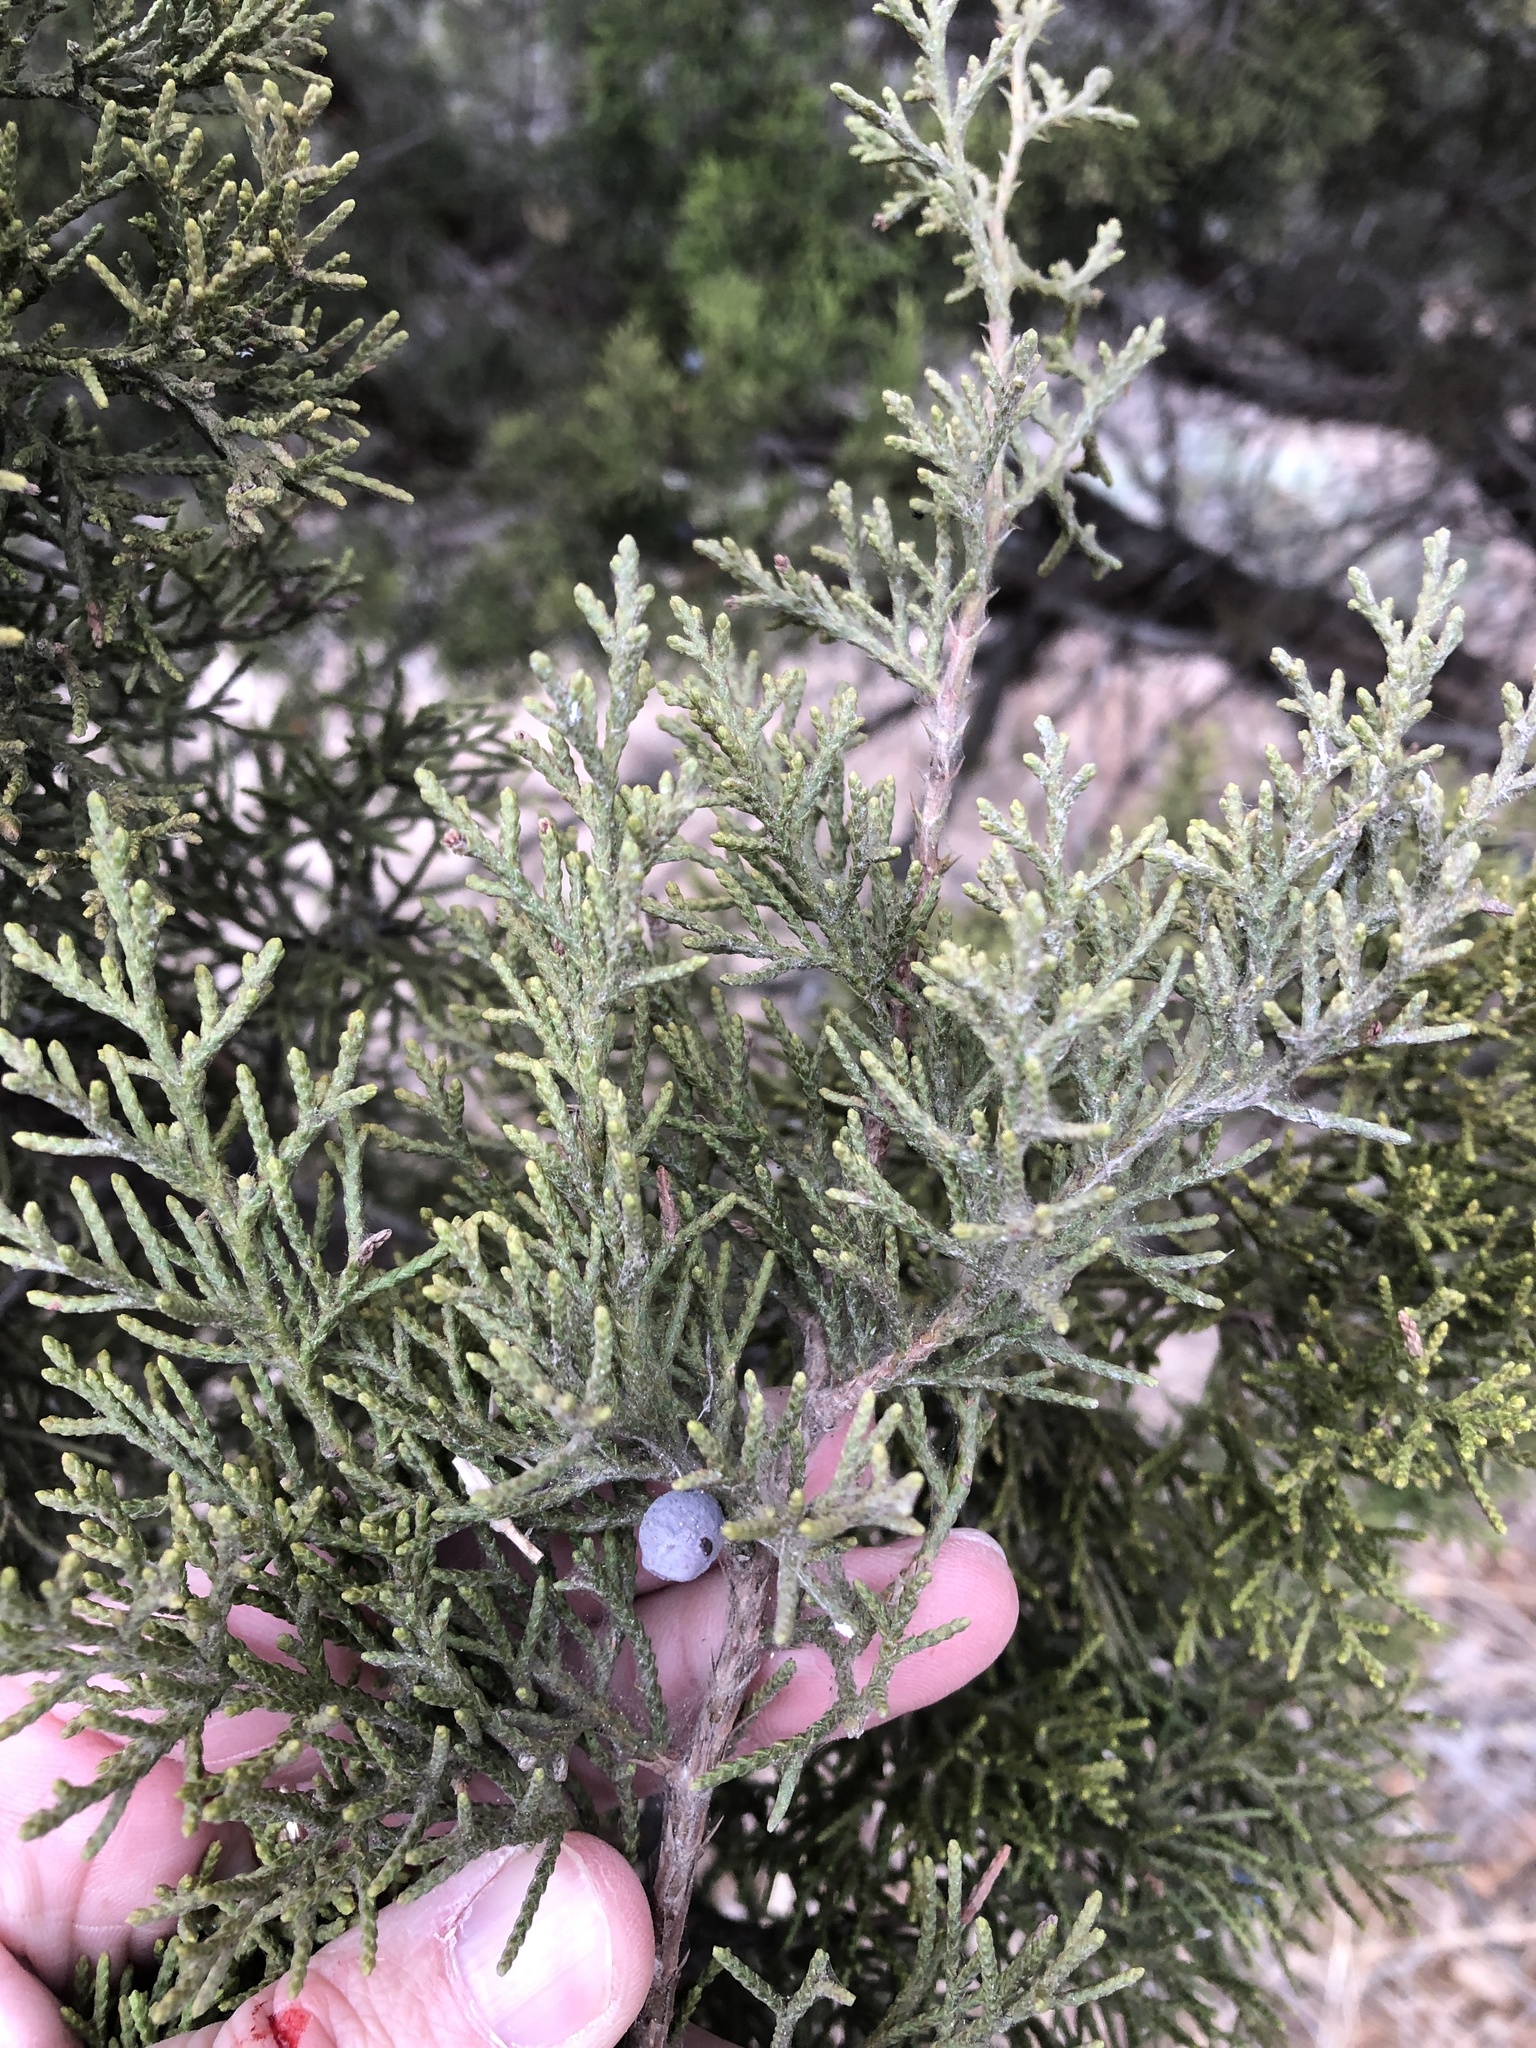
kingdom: Plantae
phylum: Tracheophyta
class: Pinopsida
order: Pinales
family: Cupressaceae
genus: Juniperus
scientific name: Juniperus ashei
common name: Mexican juniper
